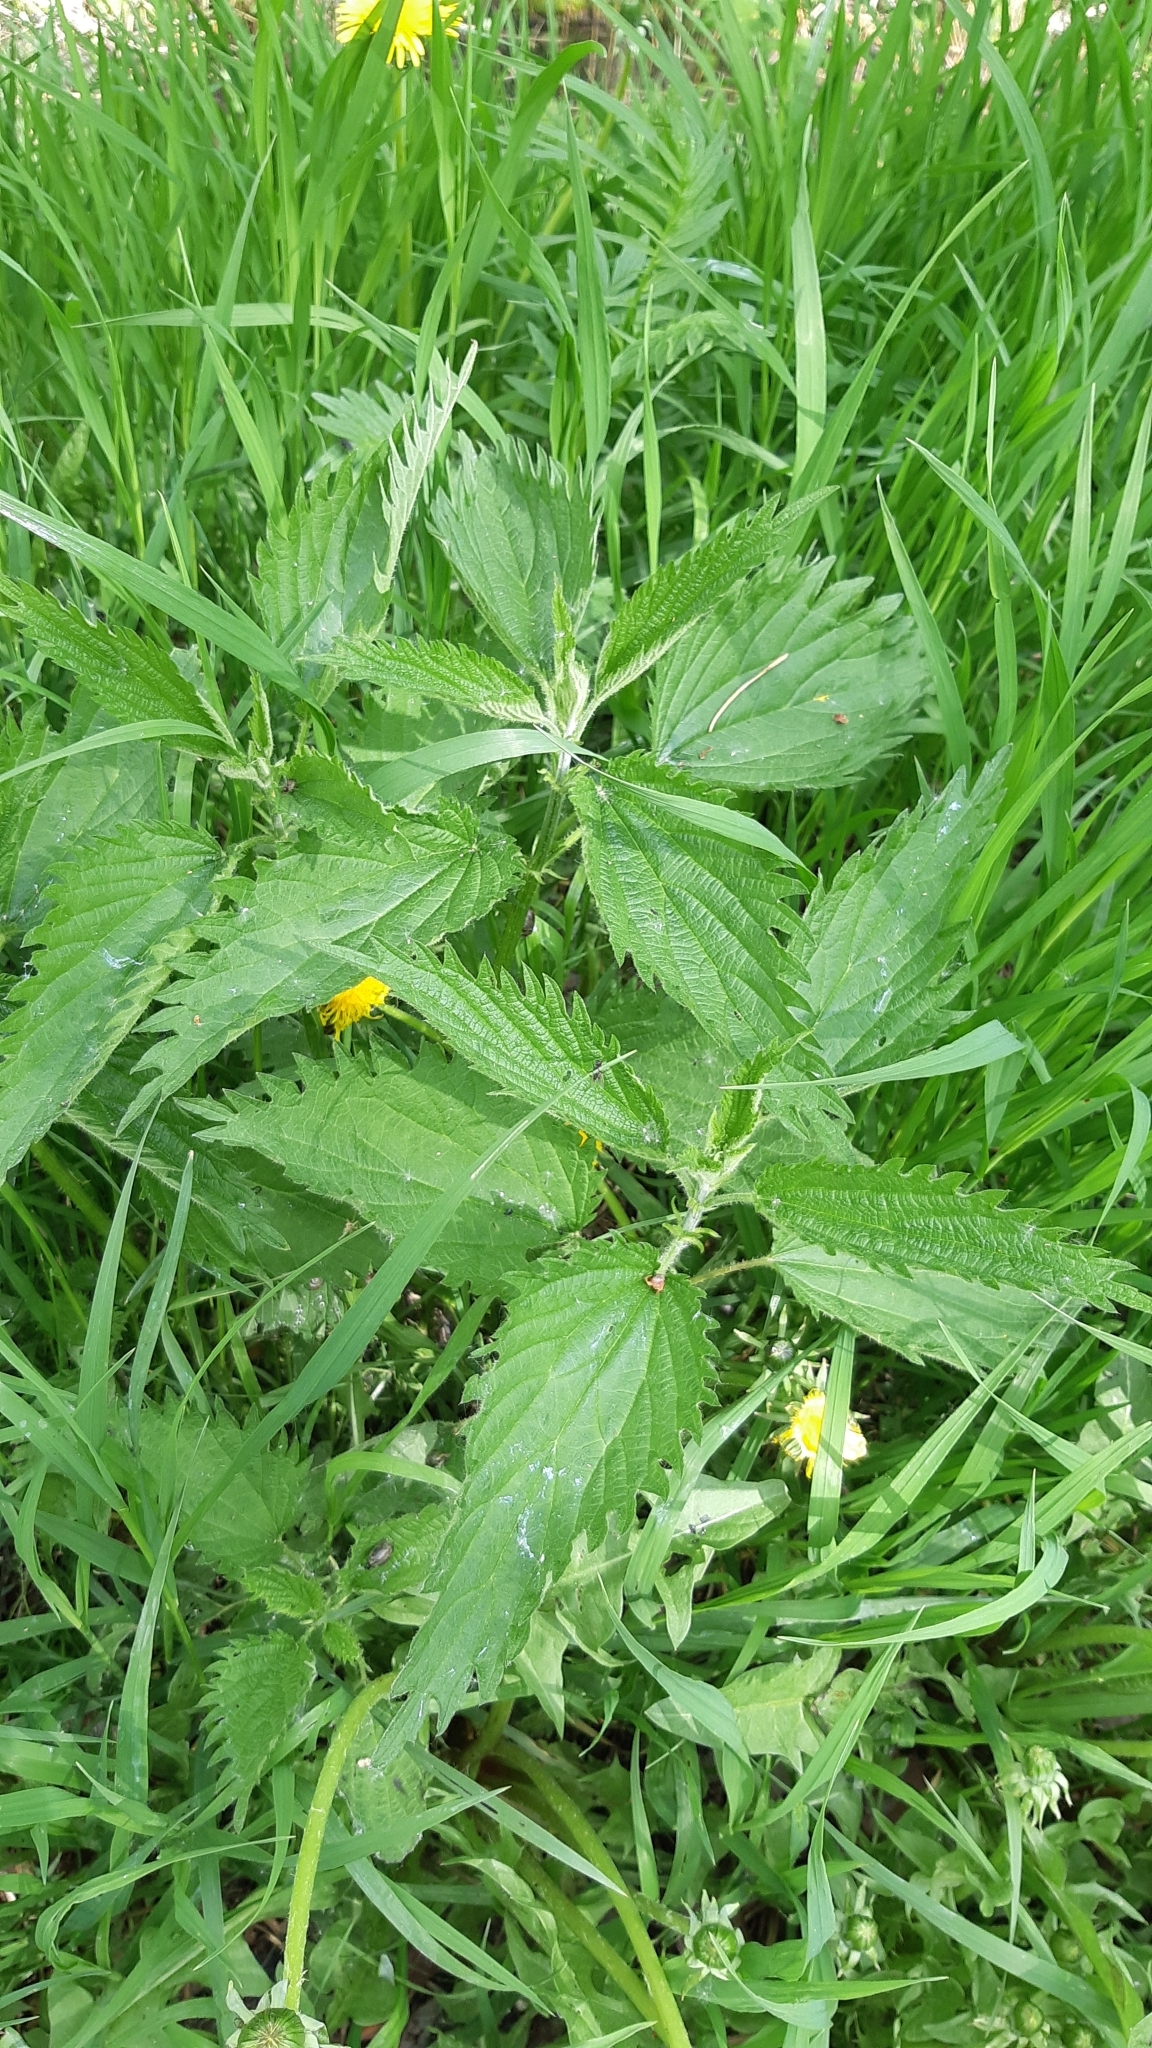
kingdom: Plantae
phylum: Tracheophyta
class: Magnoliopsida
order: Rosales
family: Urticaceae
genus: Urtica
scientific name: Urtica dioica
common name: Common nettle
